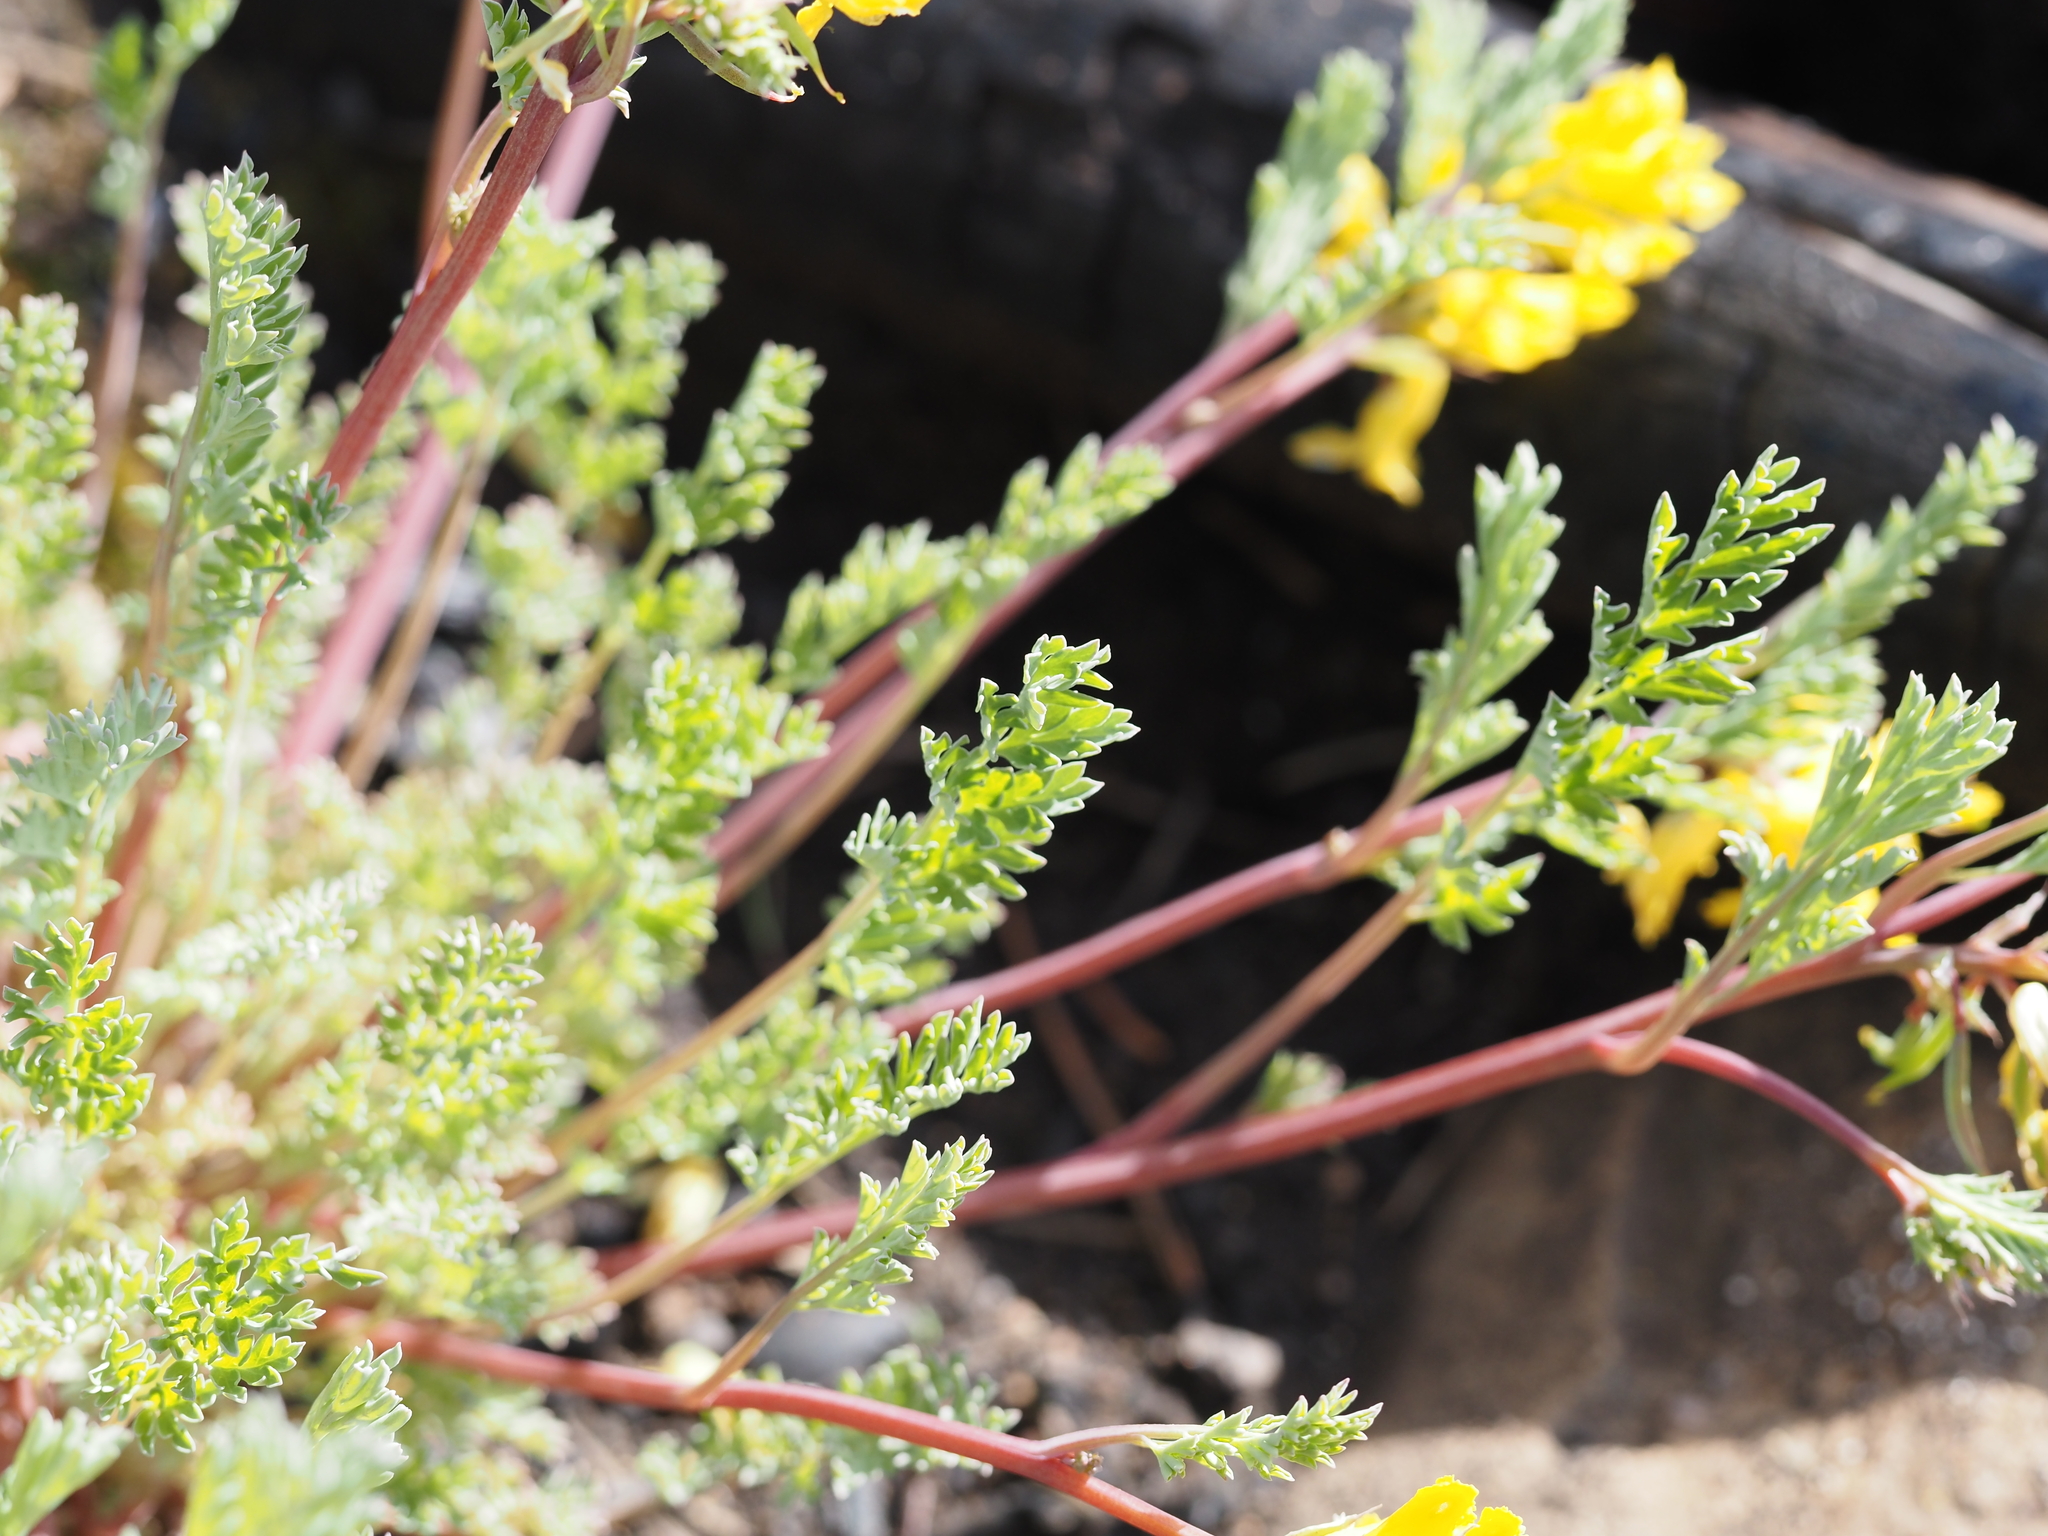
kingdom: Plantae
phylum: Tracheophyta
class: Magnoliopsida
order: Ranunculales
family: Papaveraceae
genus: Corydalis
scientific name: Corydalis aurea
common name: Golden corydalis
